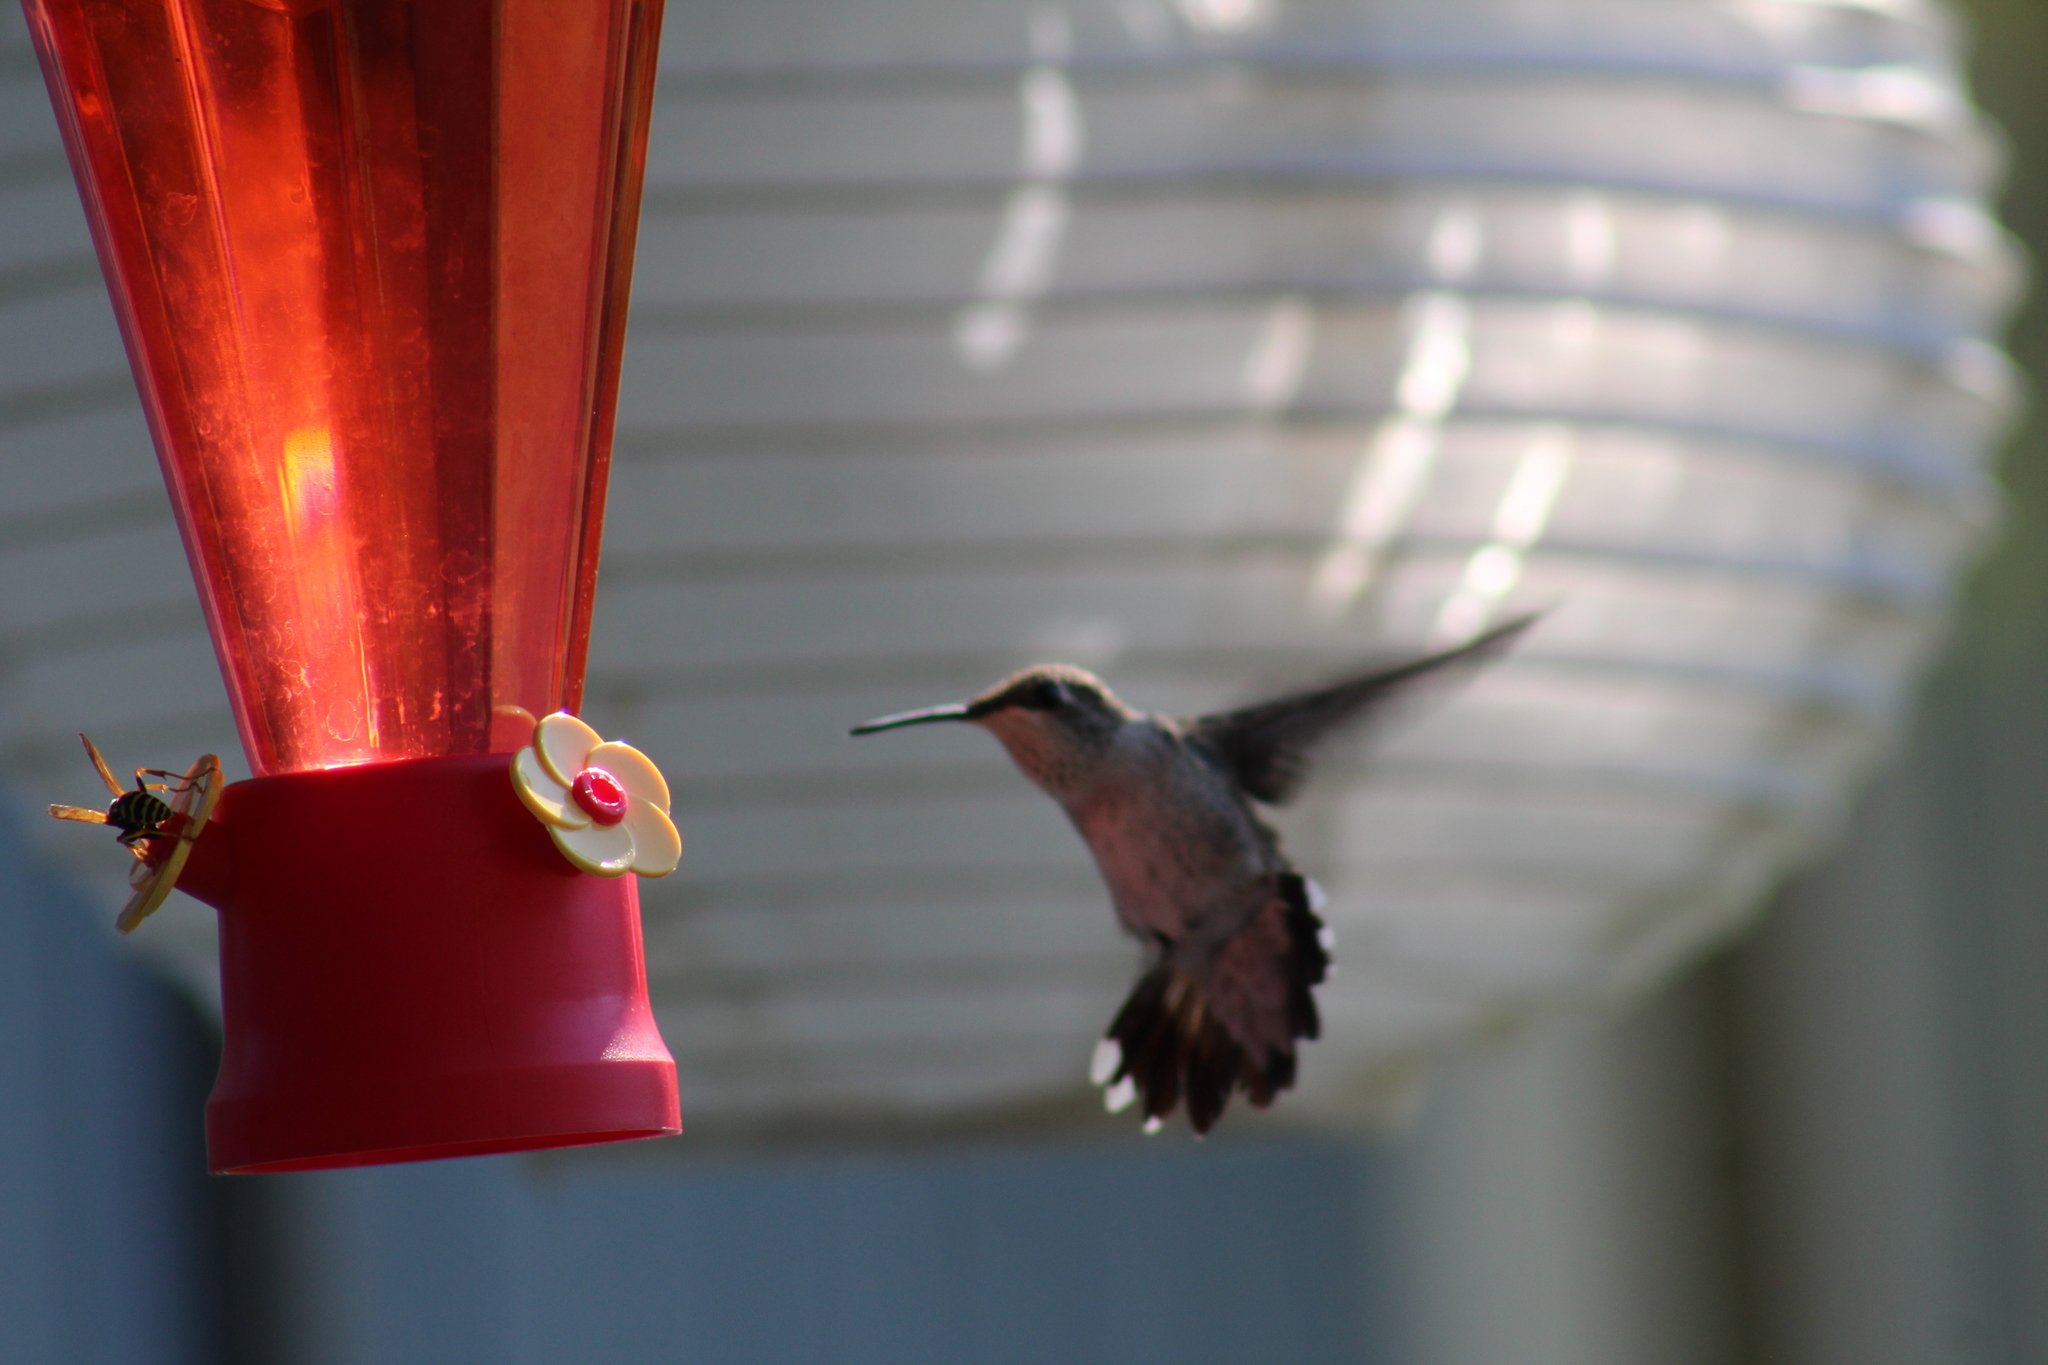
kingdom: Animalia
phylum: Chordata
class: Aves
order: Apodiformes
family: Trochilidae
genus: Archilochus
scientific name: Archilochus alexandri
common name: Black-chinned hummingbird
